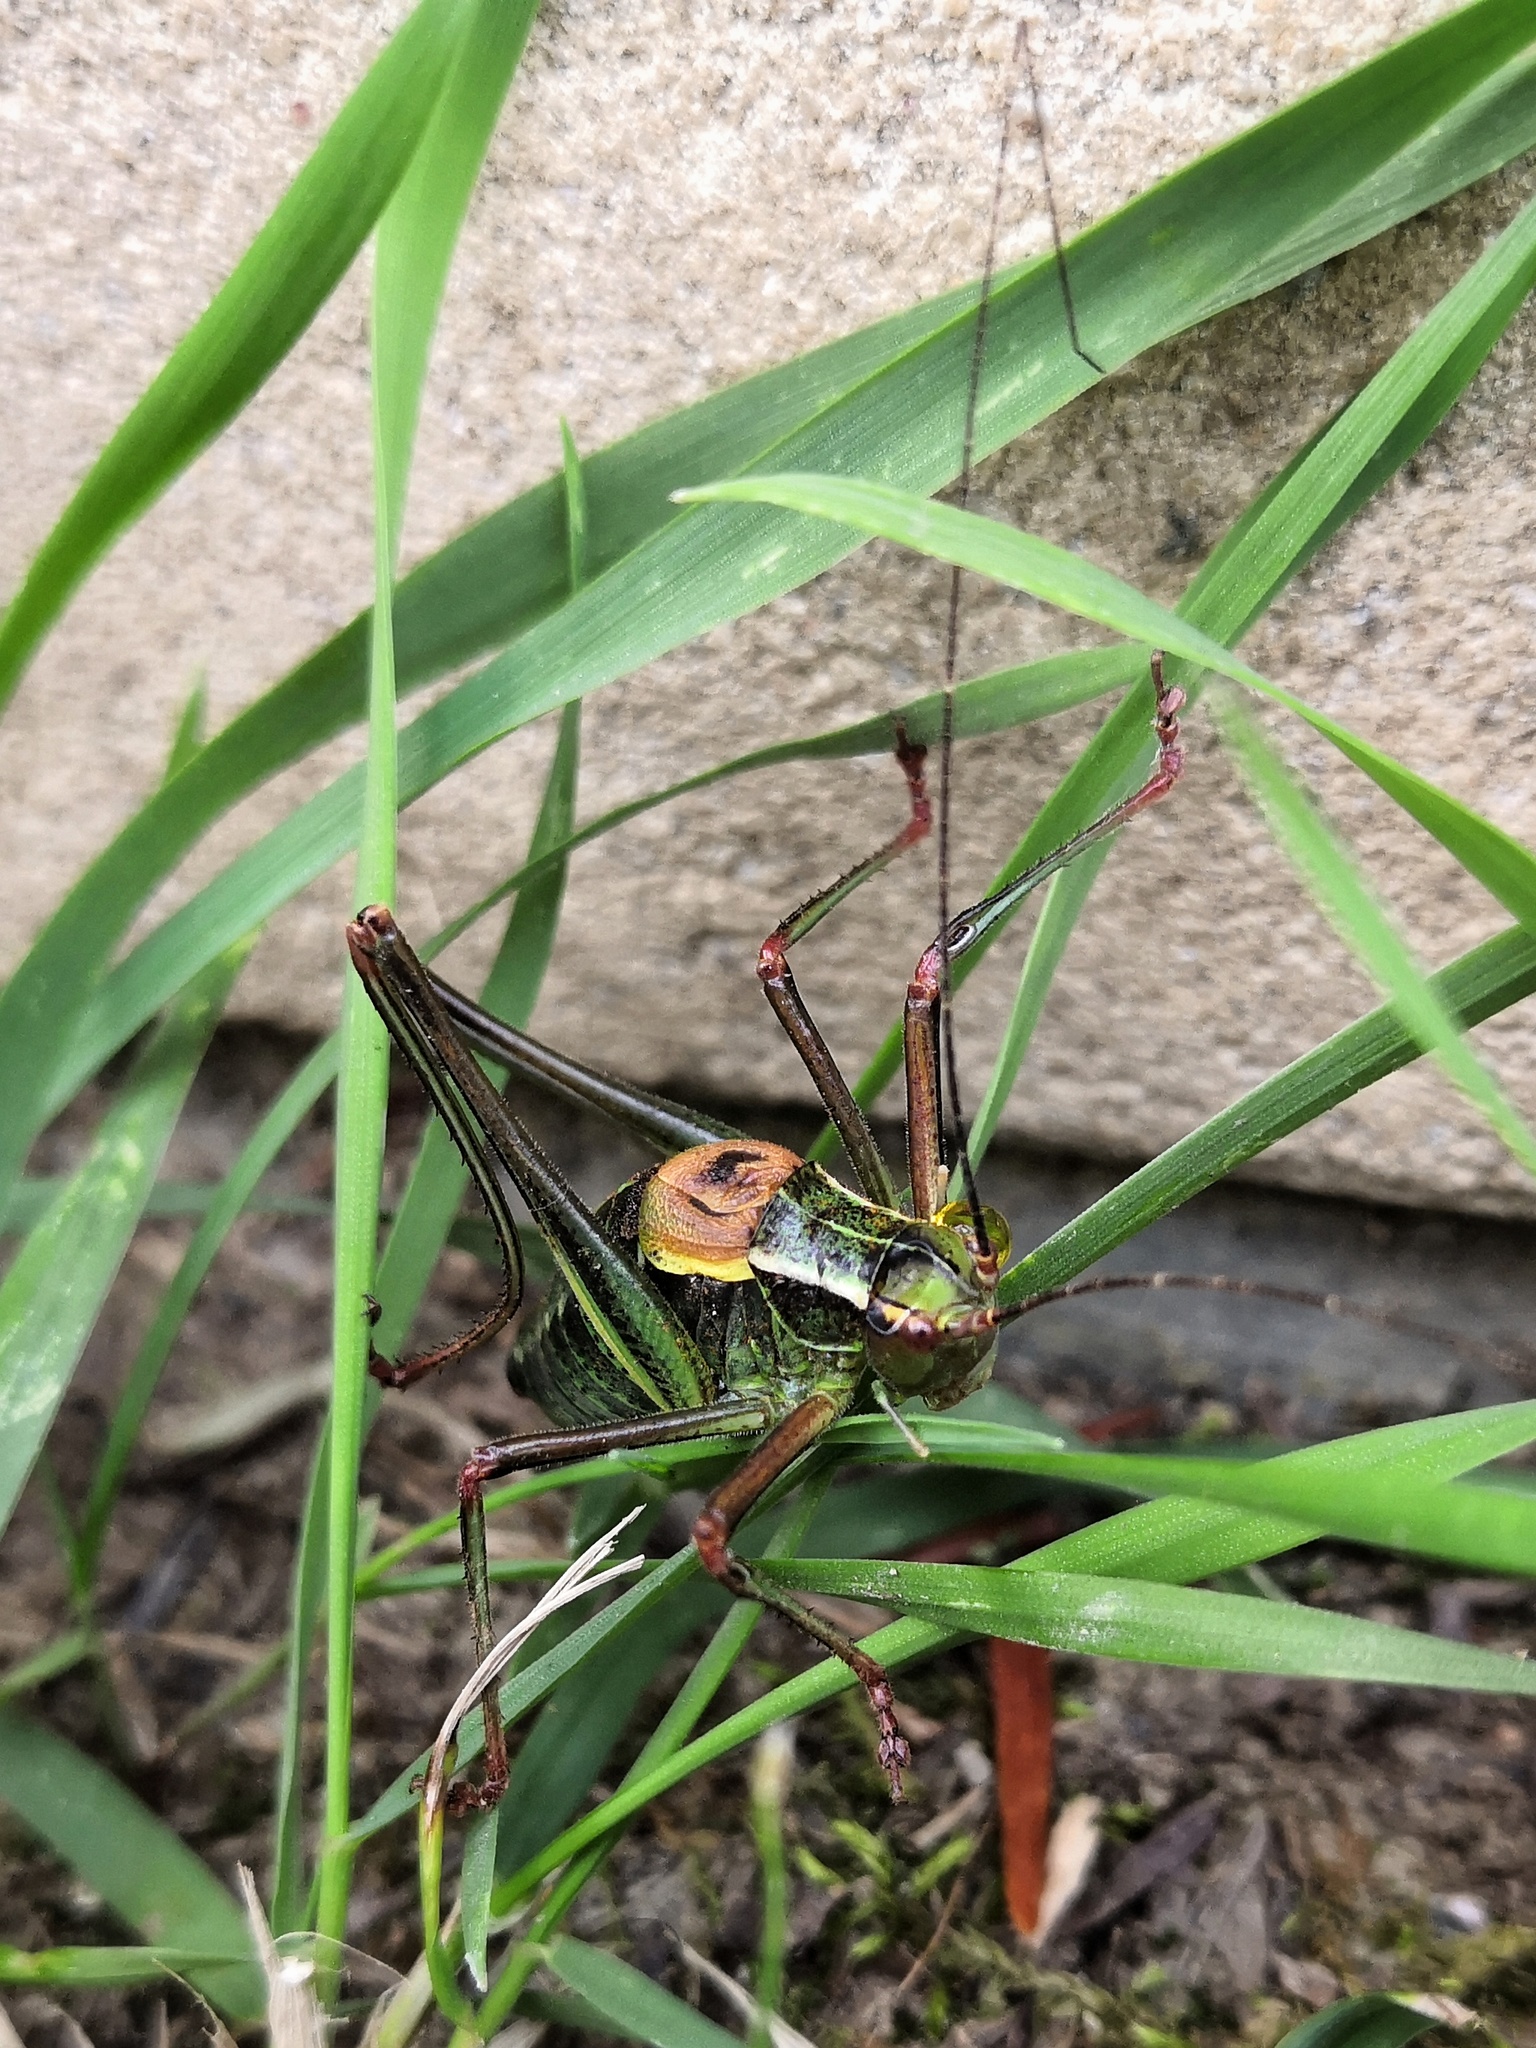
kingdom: Animalia
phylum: Arthropoda
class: Insecta
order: Orthoptera
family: Tettigoniidae
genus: Barbitistes
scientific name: Barbitistes constrictus
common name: Eastern saw-tailed bush cricket
